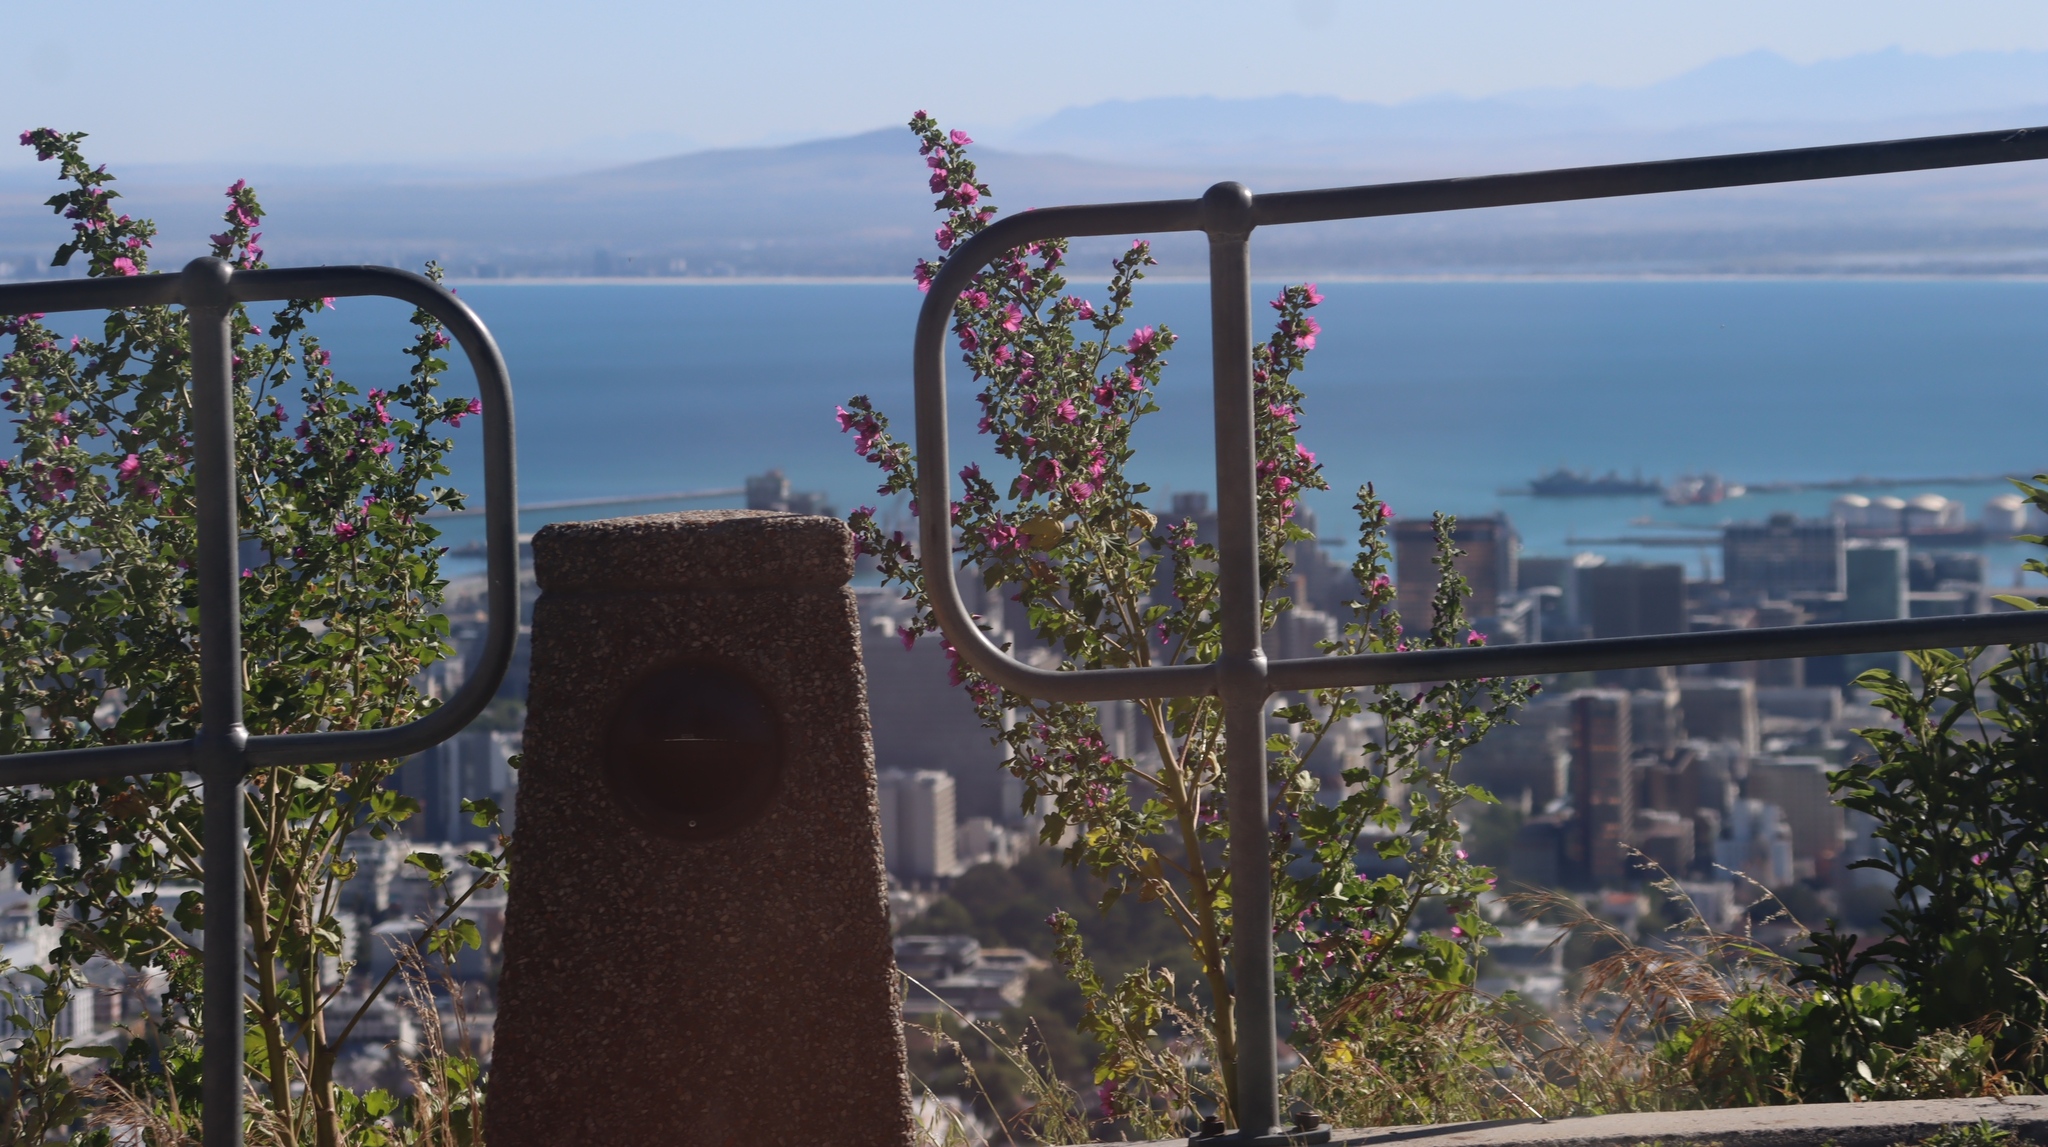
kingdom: Plantae
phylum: Tracheophyta
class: Magnoliopsida
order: Malvales
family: Malvaceae
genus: Malva
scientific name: Malva arborea
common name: Tree mallow
